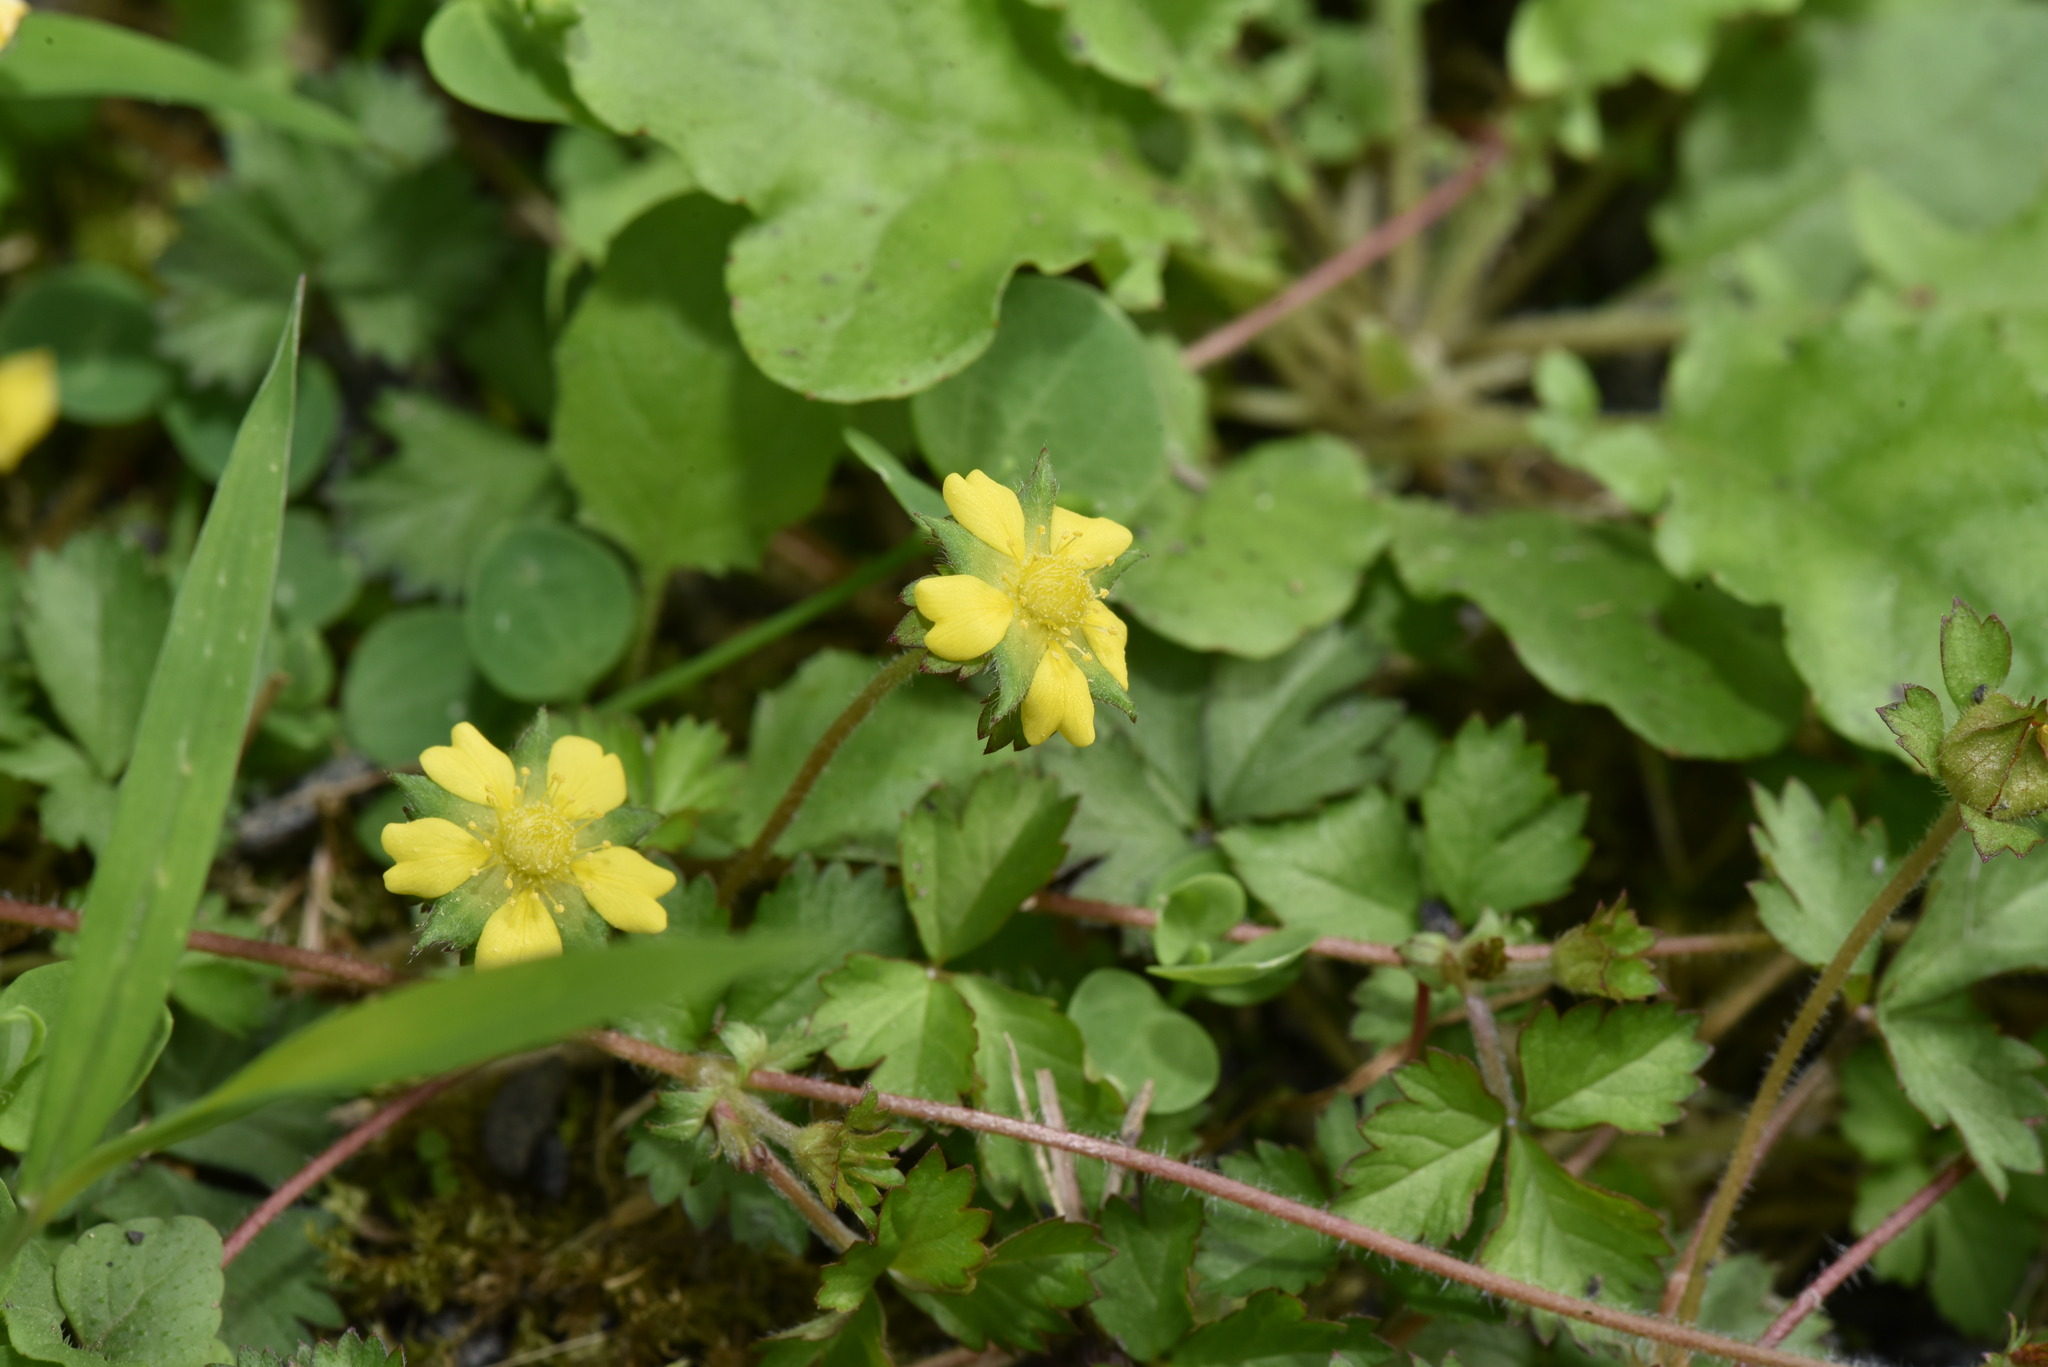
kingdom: Plantae
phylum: Tracheophyta
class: Magnoliopsida
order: Rosales
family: Rosaceae
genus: Potentilla
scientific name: Potentilla wallichiana
